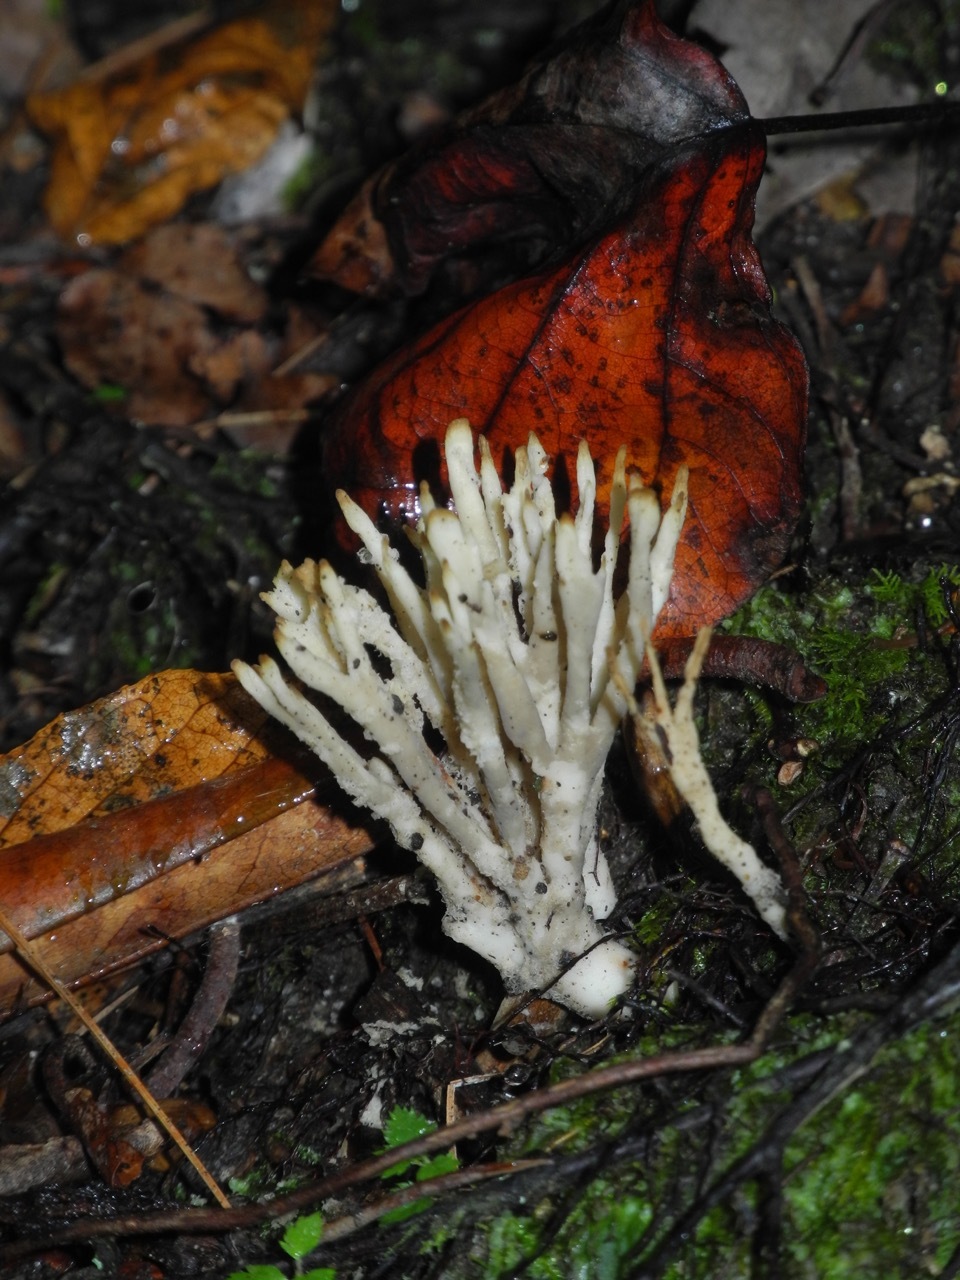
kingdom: Fungi
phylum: Basidiomycota
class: Agaricomycetes
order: Sebacinales
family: Sebacinaceae
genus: Sebacina
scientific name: Sebacina schweinitzii
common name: Jellied false coral fungus
